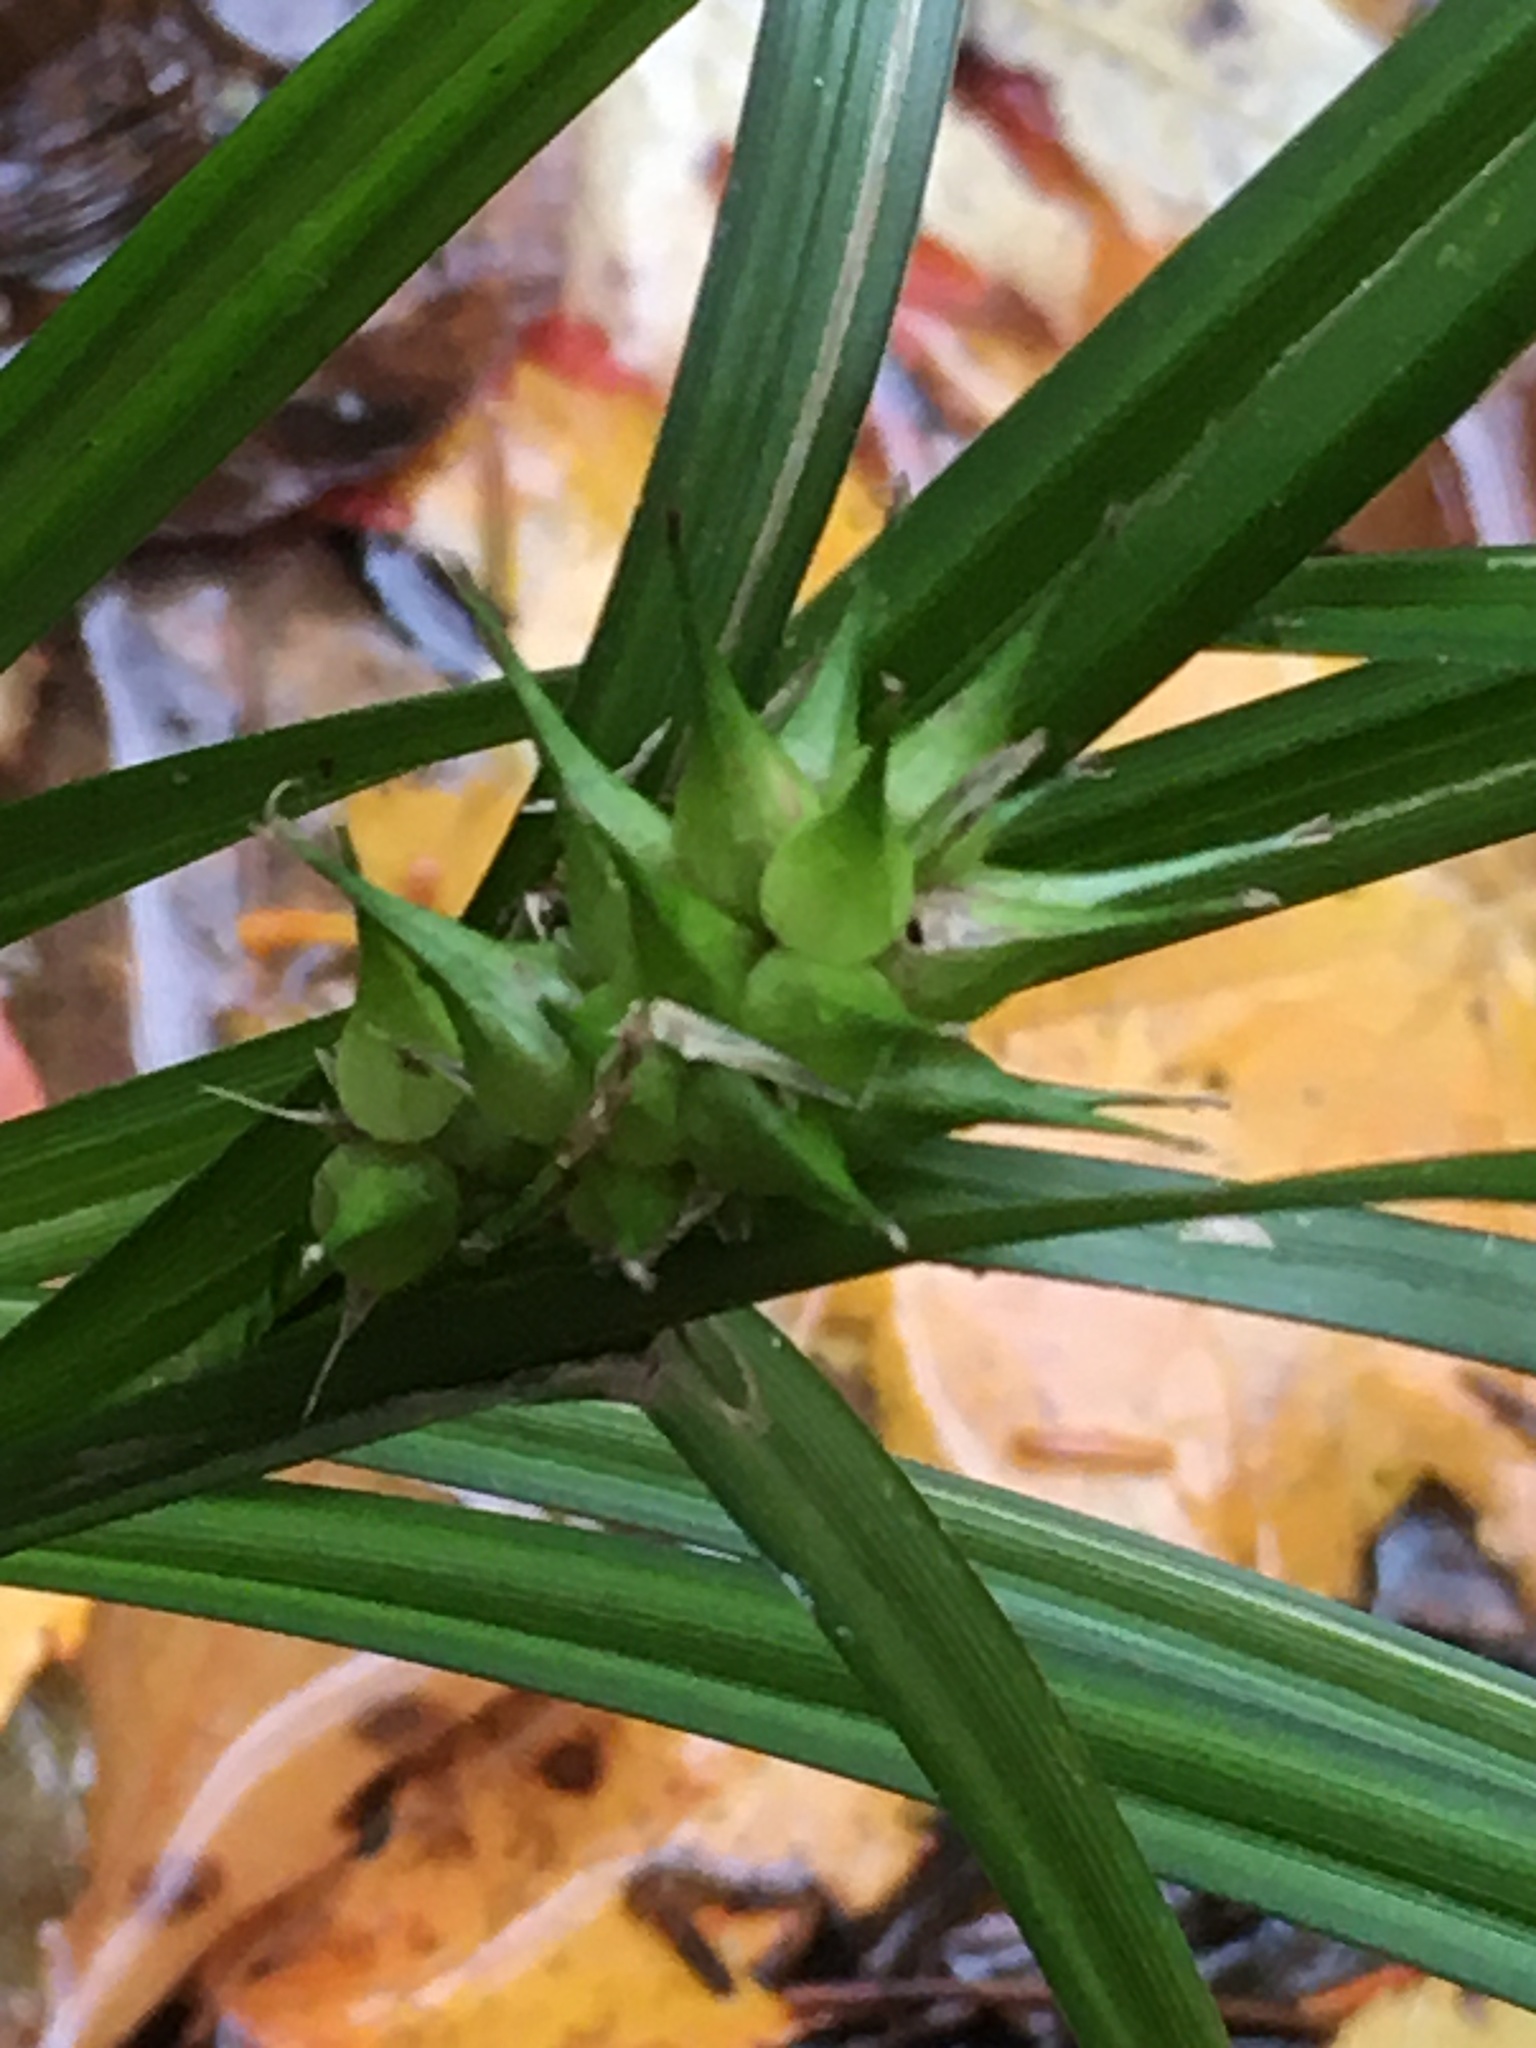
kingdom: Plantae
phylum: Tracheophyta
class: Liliopsida
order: Poales
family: Cyperaceae
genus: Carex
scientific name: Carex lupulina
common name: Hop sedge
